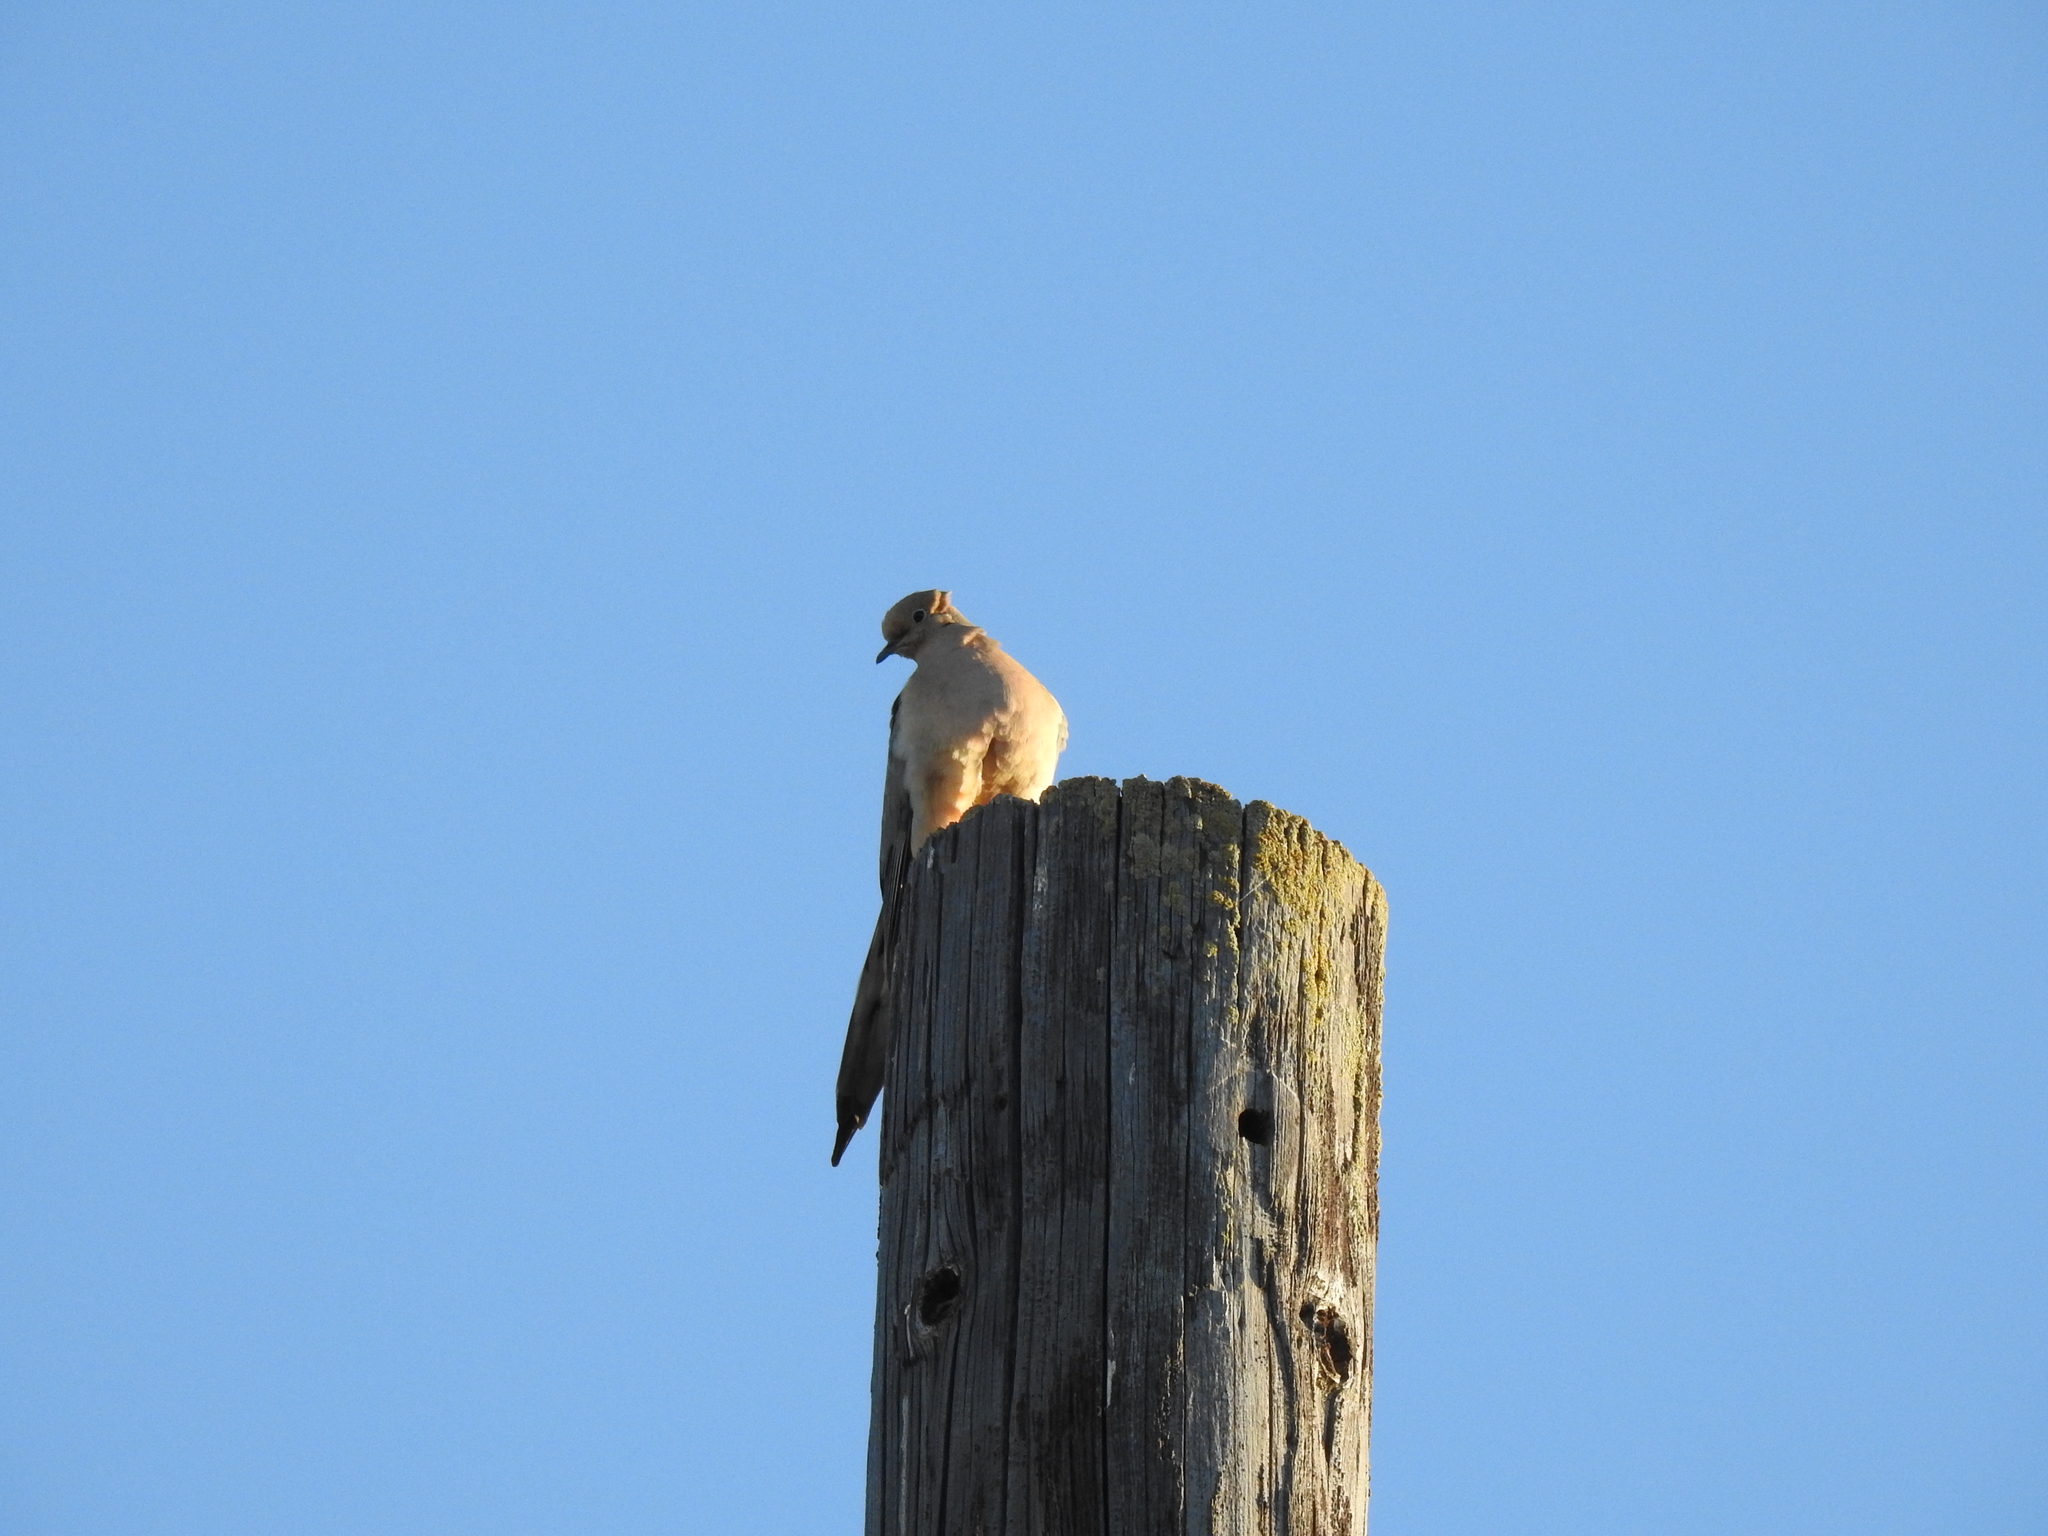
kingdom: Animalia
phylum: Chordata
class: Aves
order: Columbiformes
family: Columbidae
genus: Zenaida
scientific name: Zenaida macroura
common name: Mourning dove
